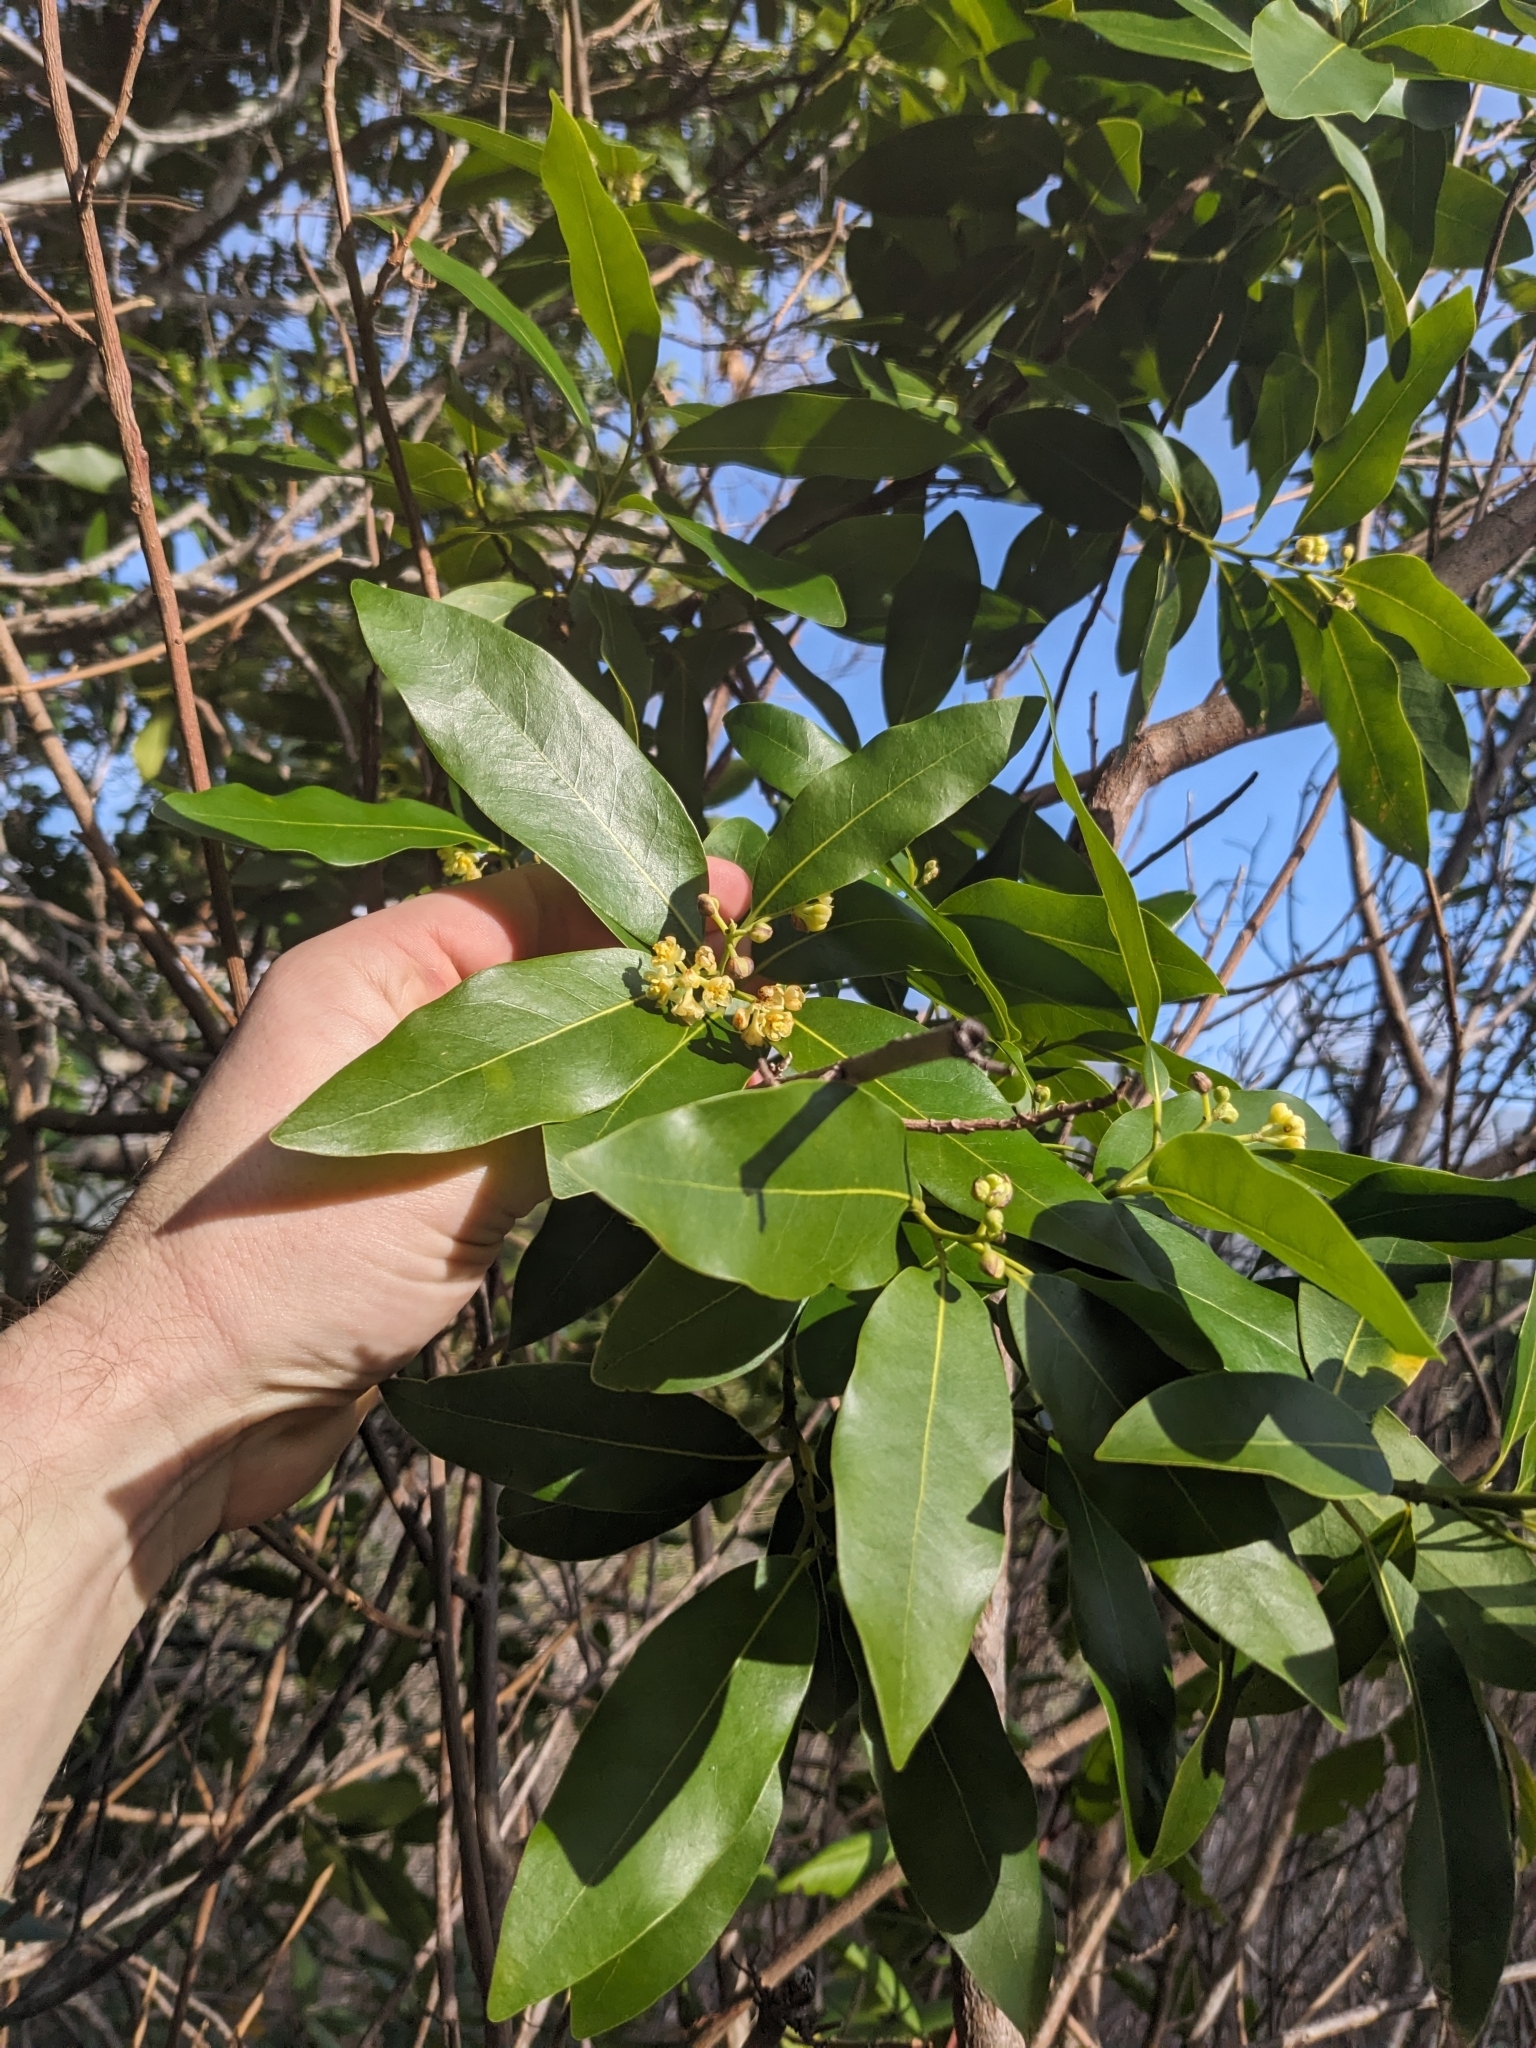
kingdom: Plantae
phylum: Tracheophyta
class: Magnoliopsida
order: Laurales
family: Lauraceae
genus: Umbellularia
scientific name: Umbellularia californica
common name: California bay
